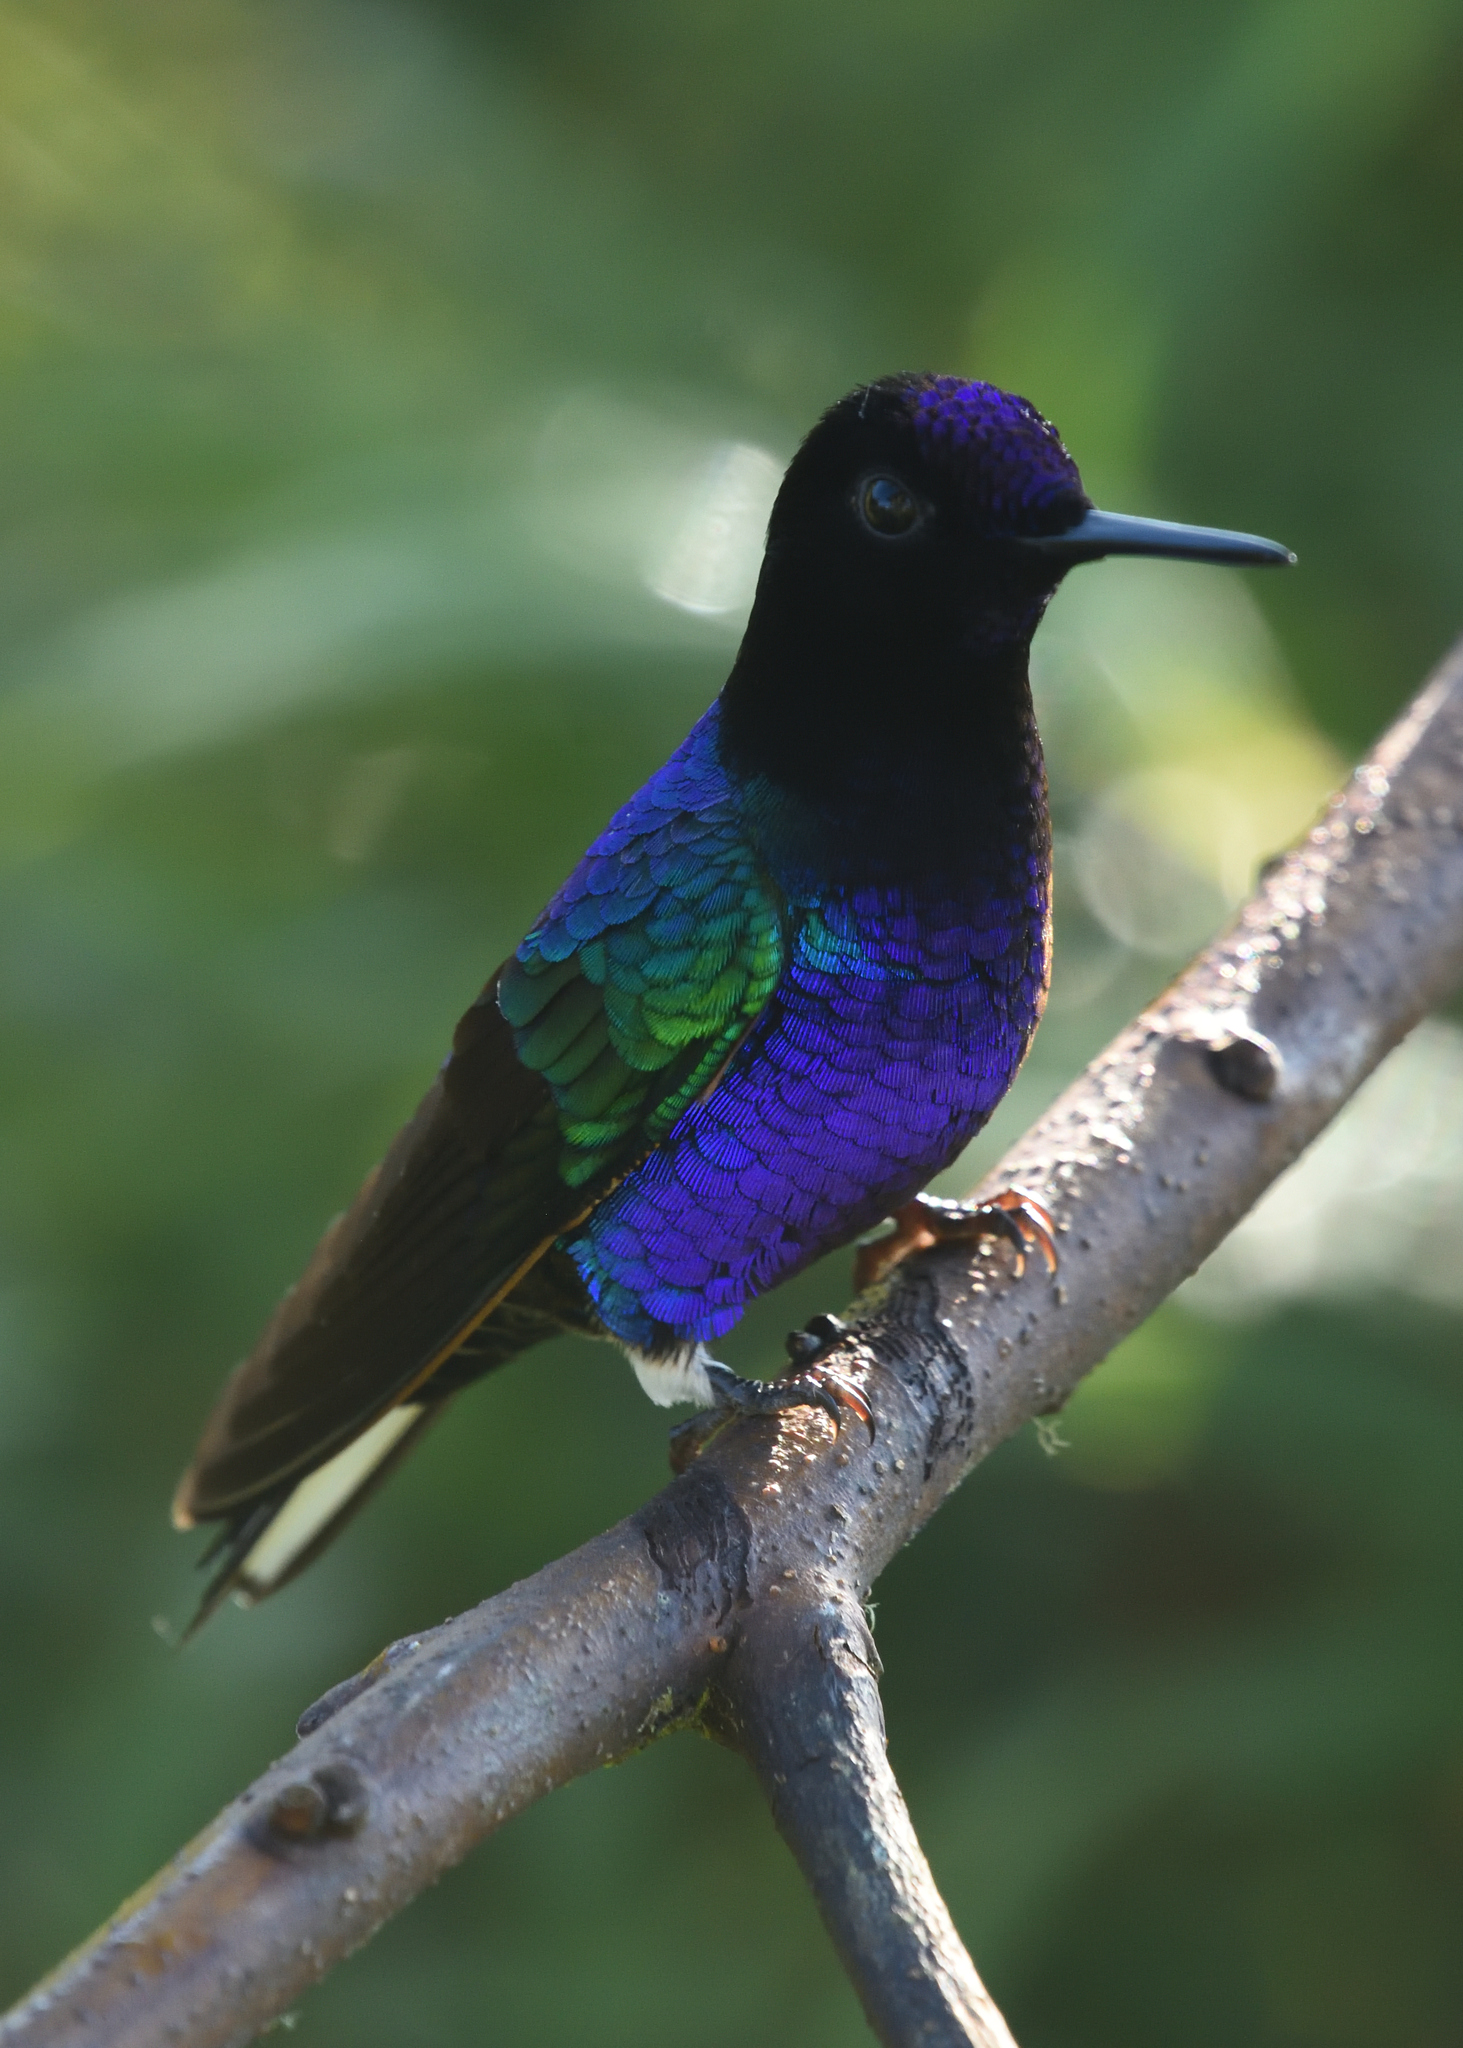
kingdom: Animalia
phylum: Chordata
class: Aves
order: Apodiformes
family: Trochilidae
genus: Boissonneaua
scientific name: Boissonneaua jardini
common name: Velvet-purple coronet
